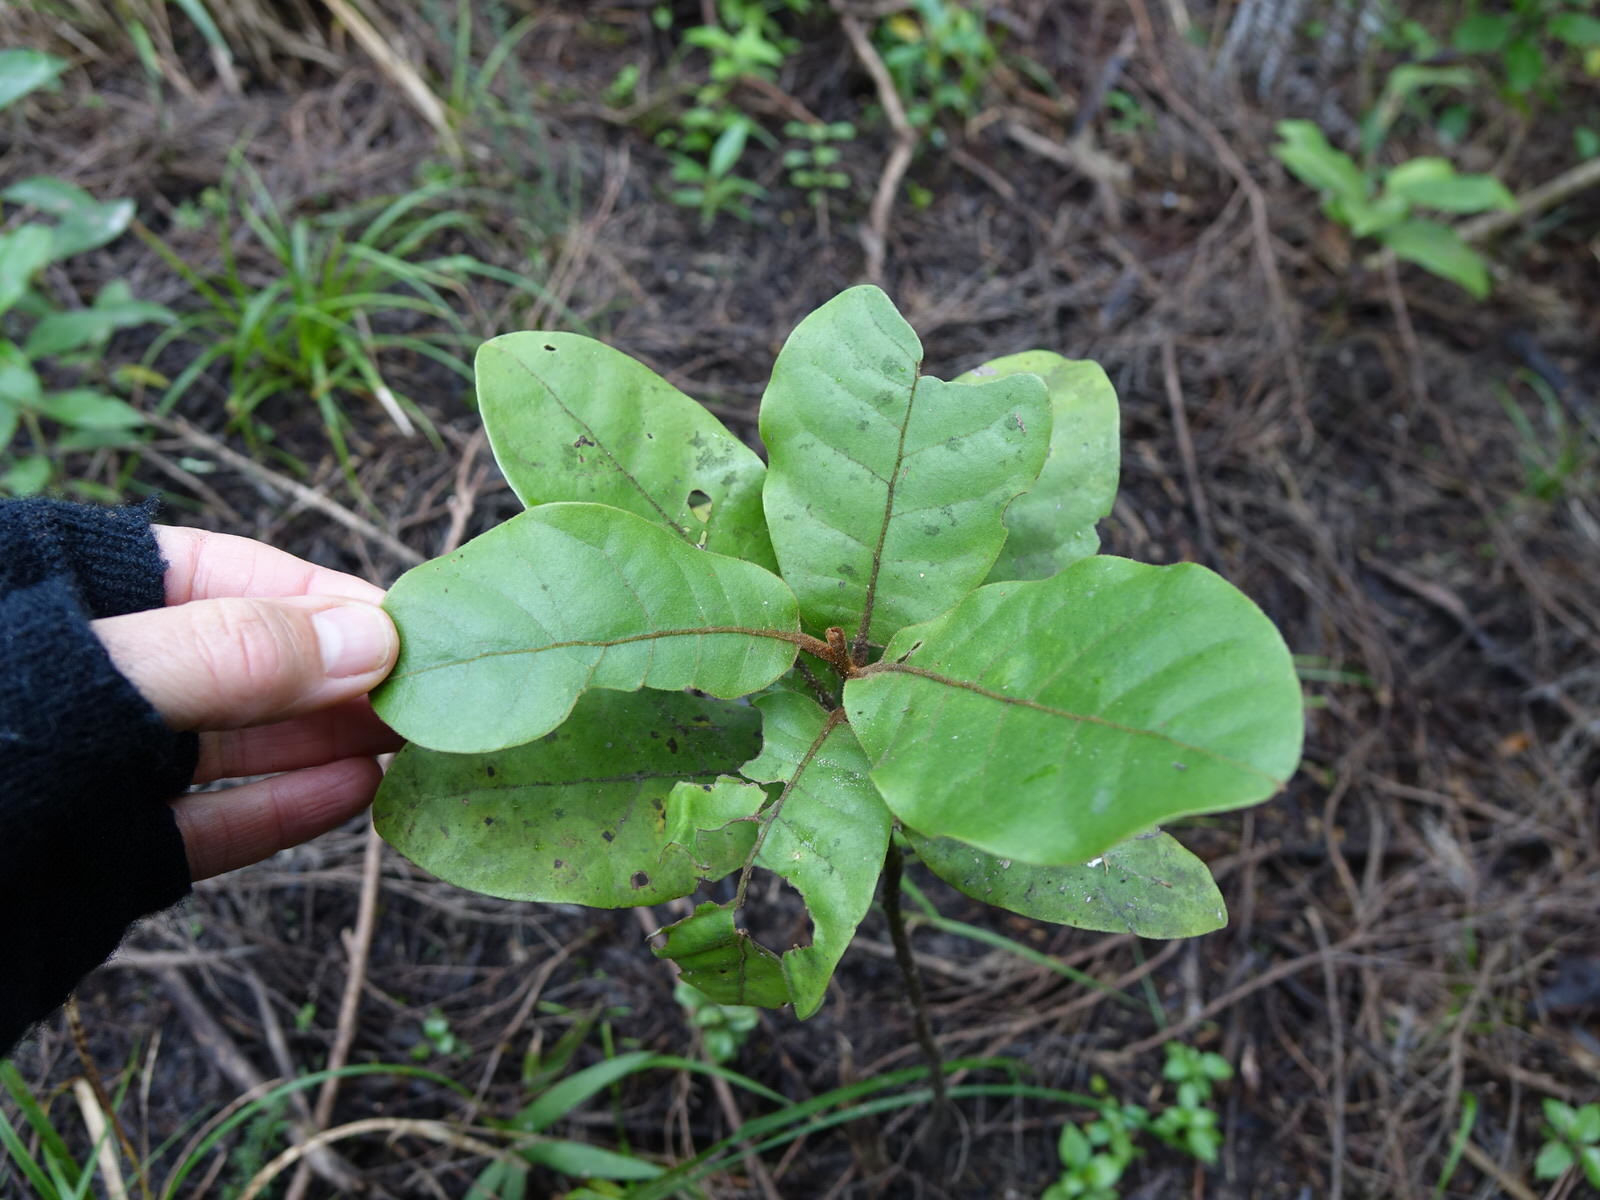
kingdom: Plantae
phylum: Tracheophyta
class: Magnoliopsida
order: Laurales
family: Lauraceae
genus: Beilschmiedia
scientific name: Beilschmiedia tarairi
